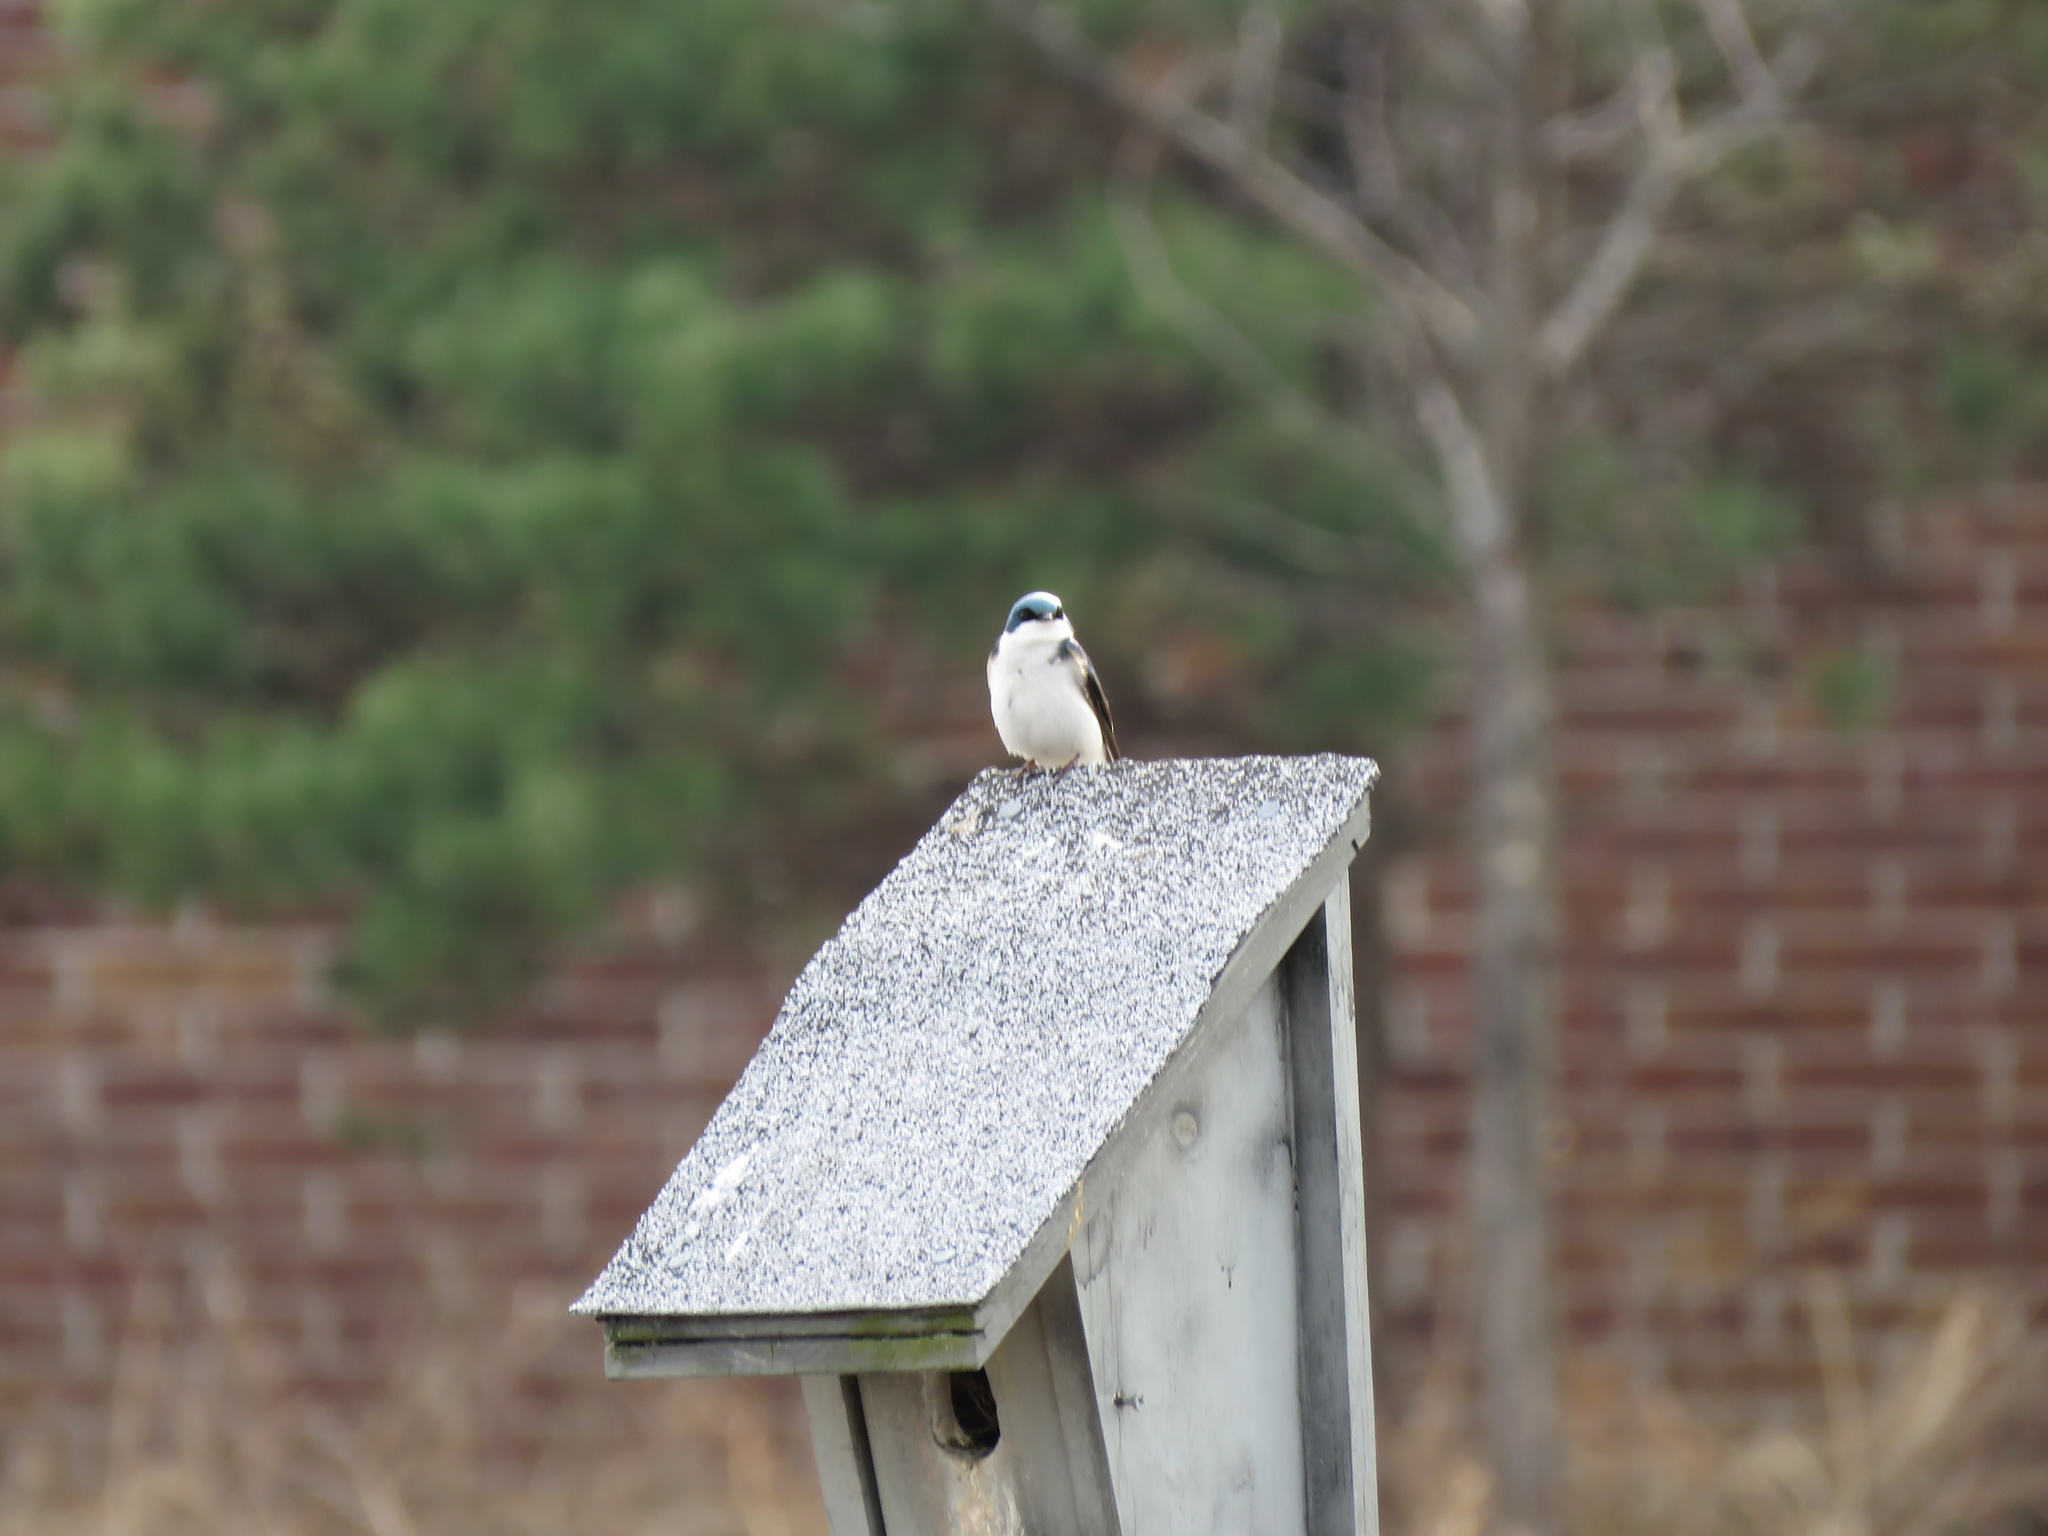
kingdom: Animalia
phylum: Chordata
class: Aves
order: Passeriformes
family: Hirundinidae
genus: Tachycineta
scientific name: Tachycineta bicolor
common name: Tree swallow
